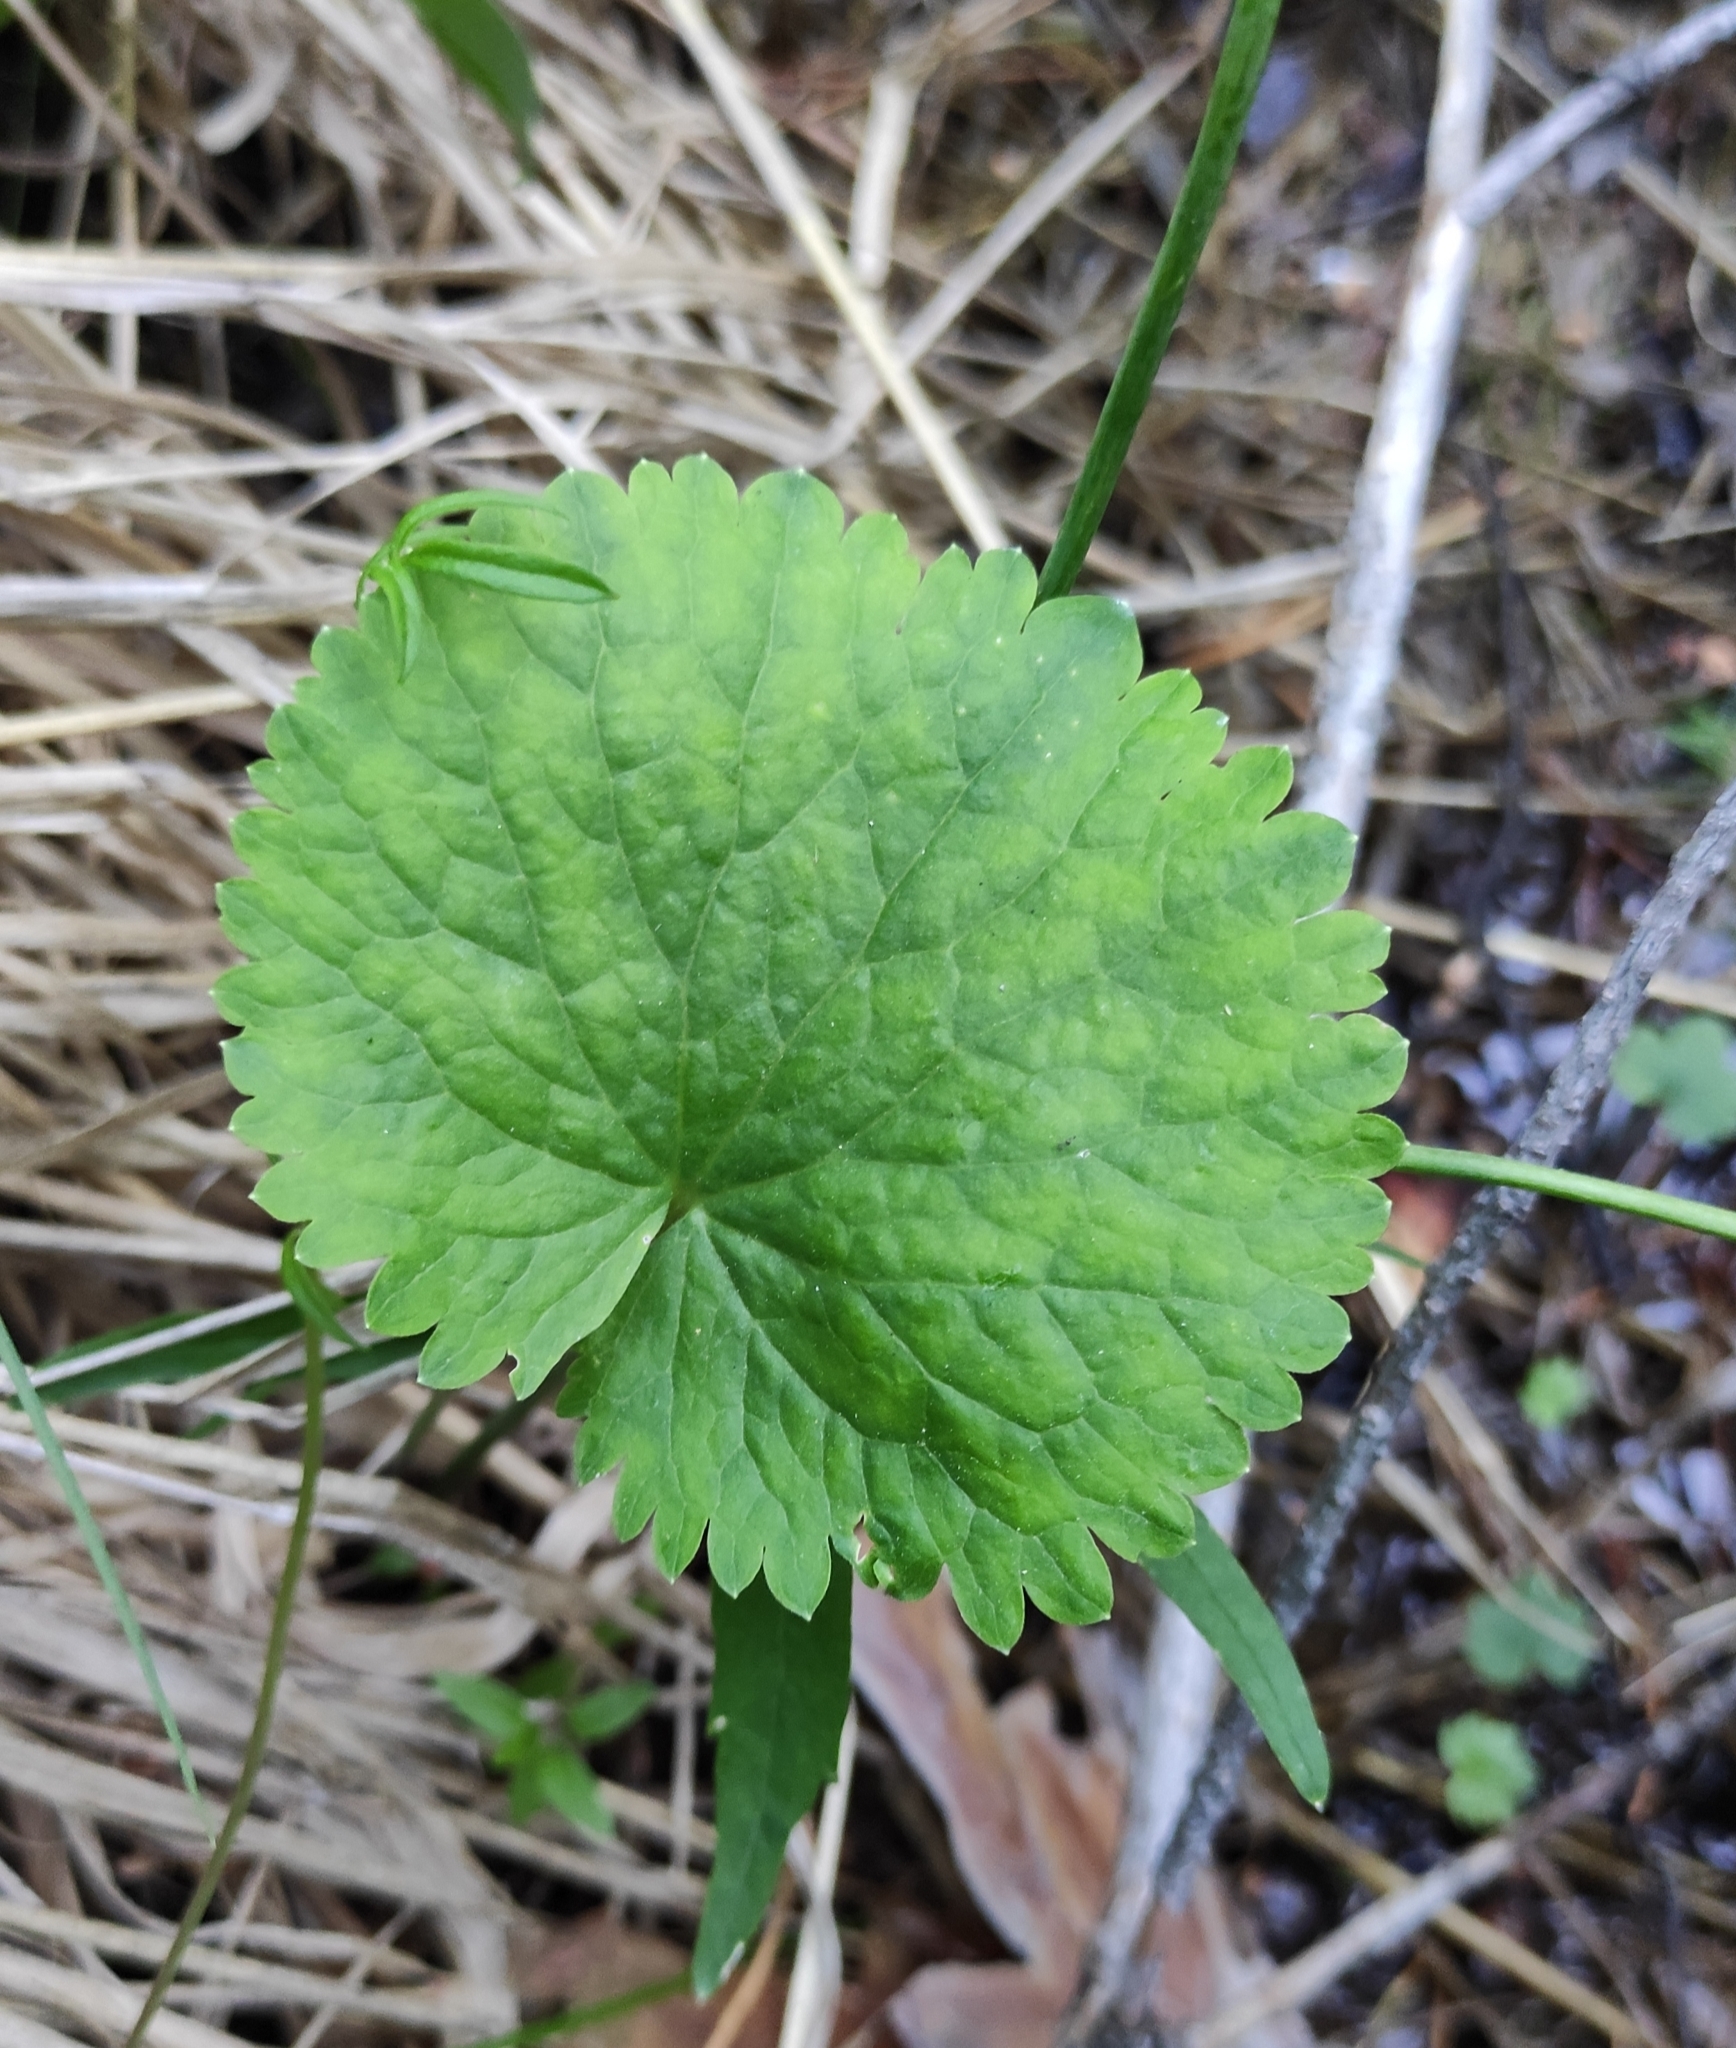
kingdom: Plantae
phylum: Tracheophyta
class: Magnoliopsida
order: Ranunculales
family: Ranunculaceae
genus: Ranunculus
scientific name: Ranunculus monophyllus
